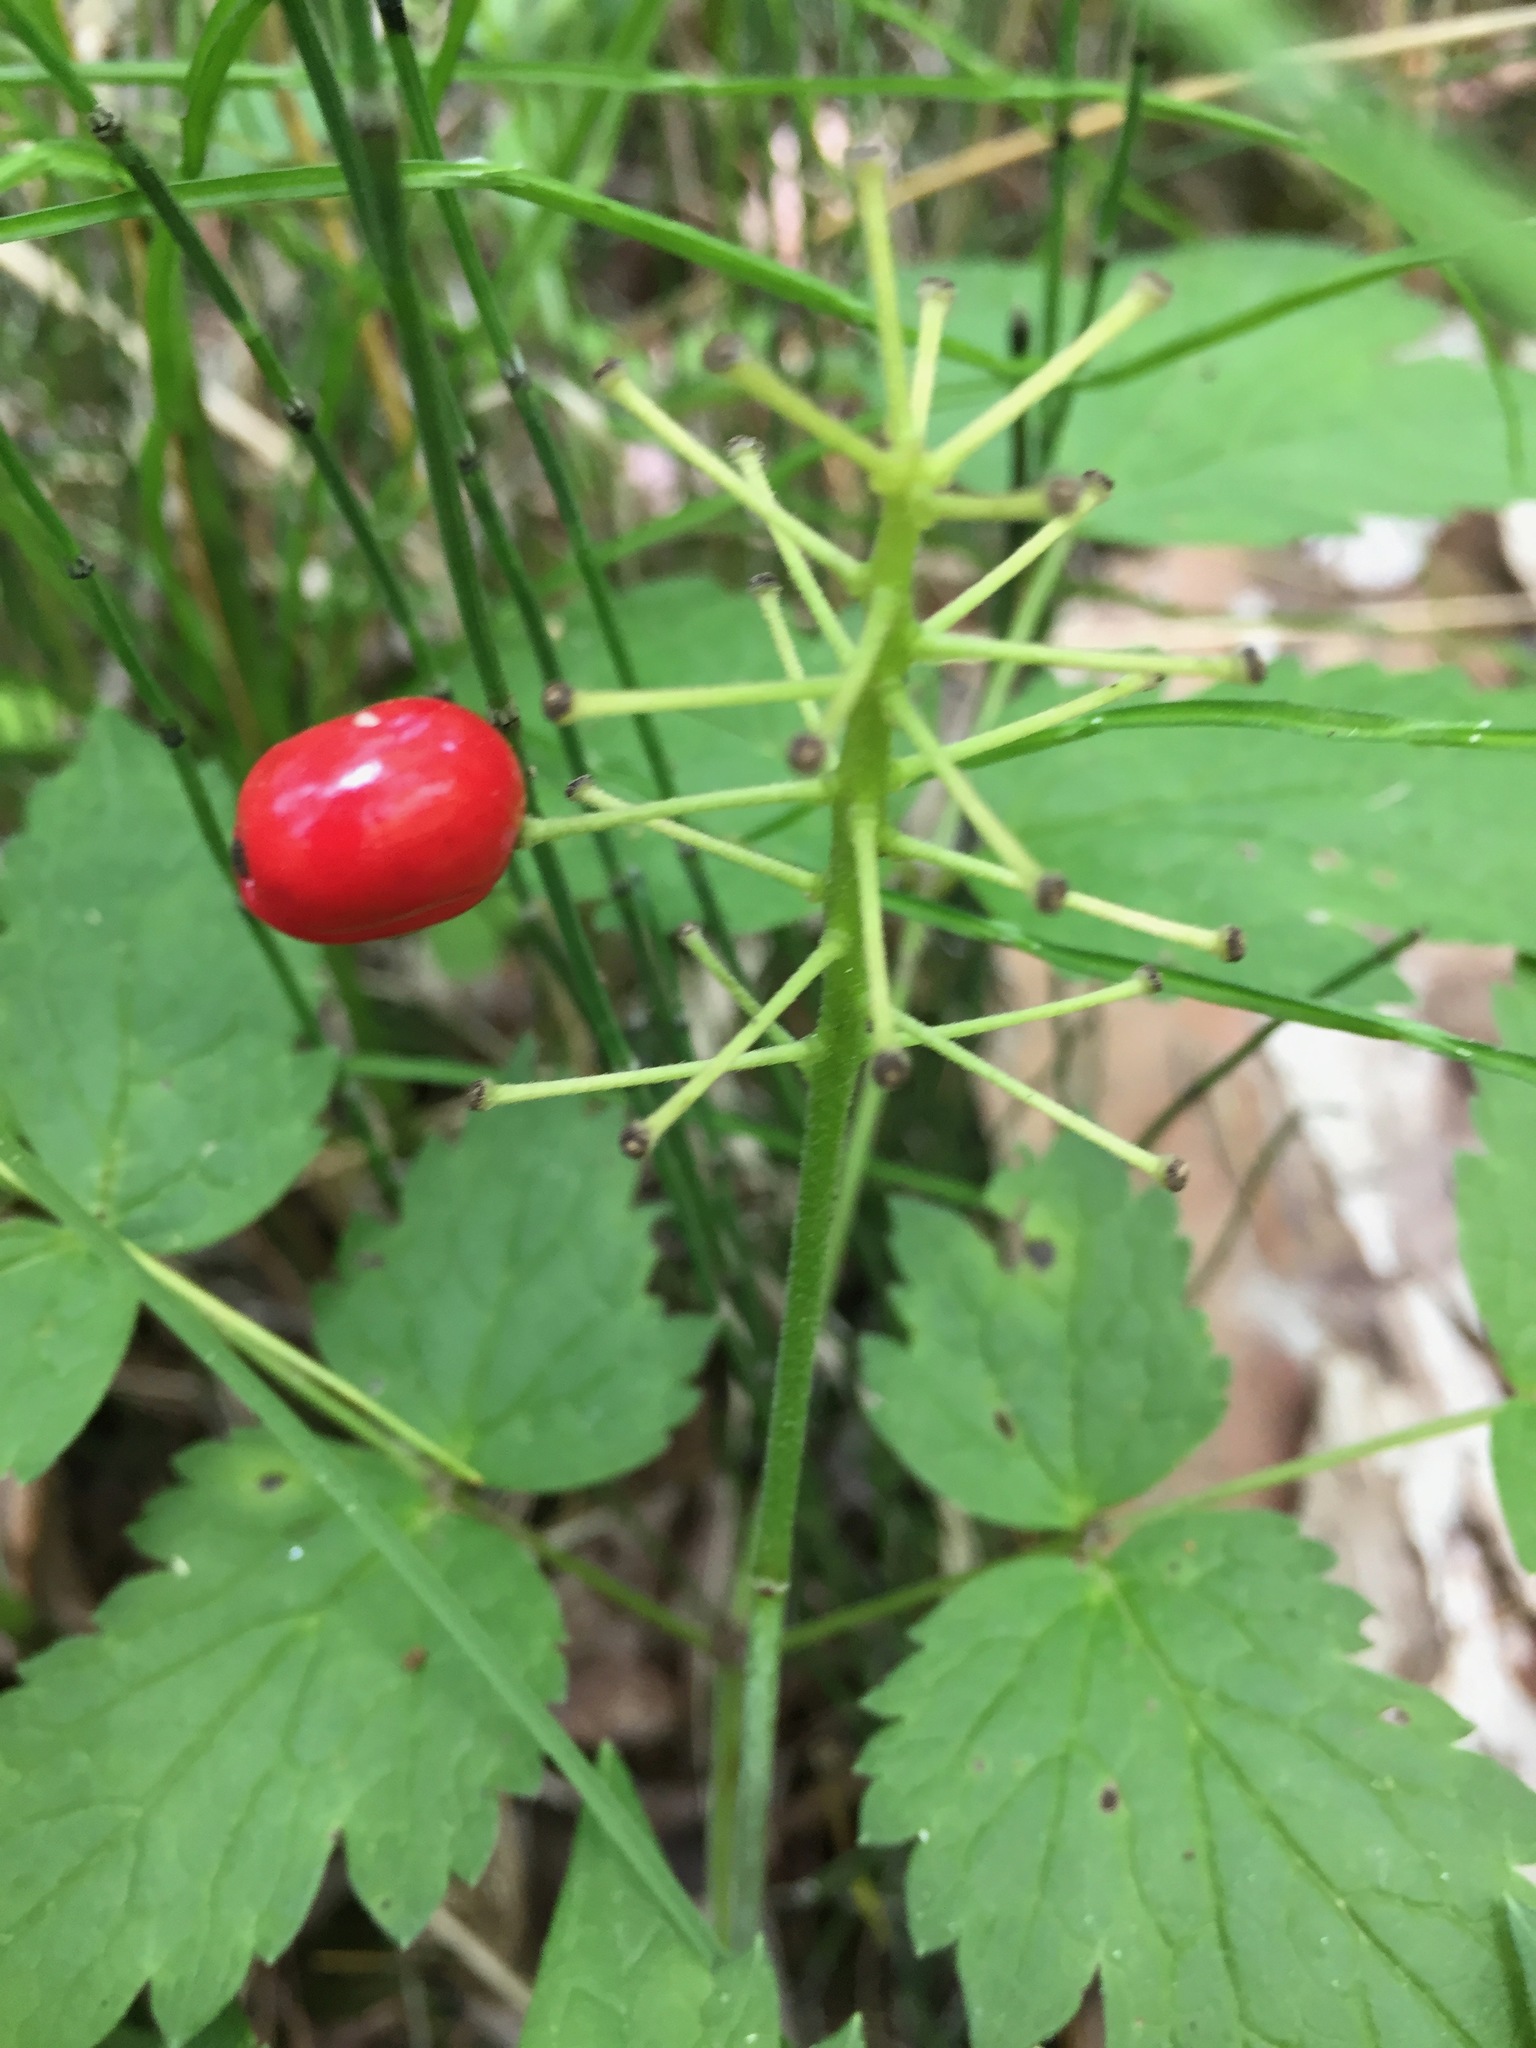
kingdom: Plantae
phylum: Tracheophyta
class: Magnoliopsida
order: Ranunculales
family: Ranunculaceae
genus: Actaea
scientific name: Actaea rubra
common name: Red baneberry
